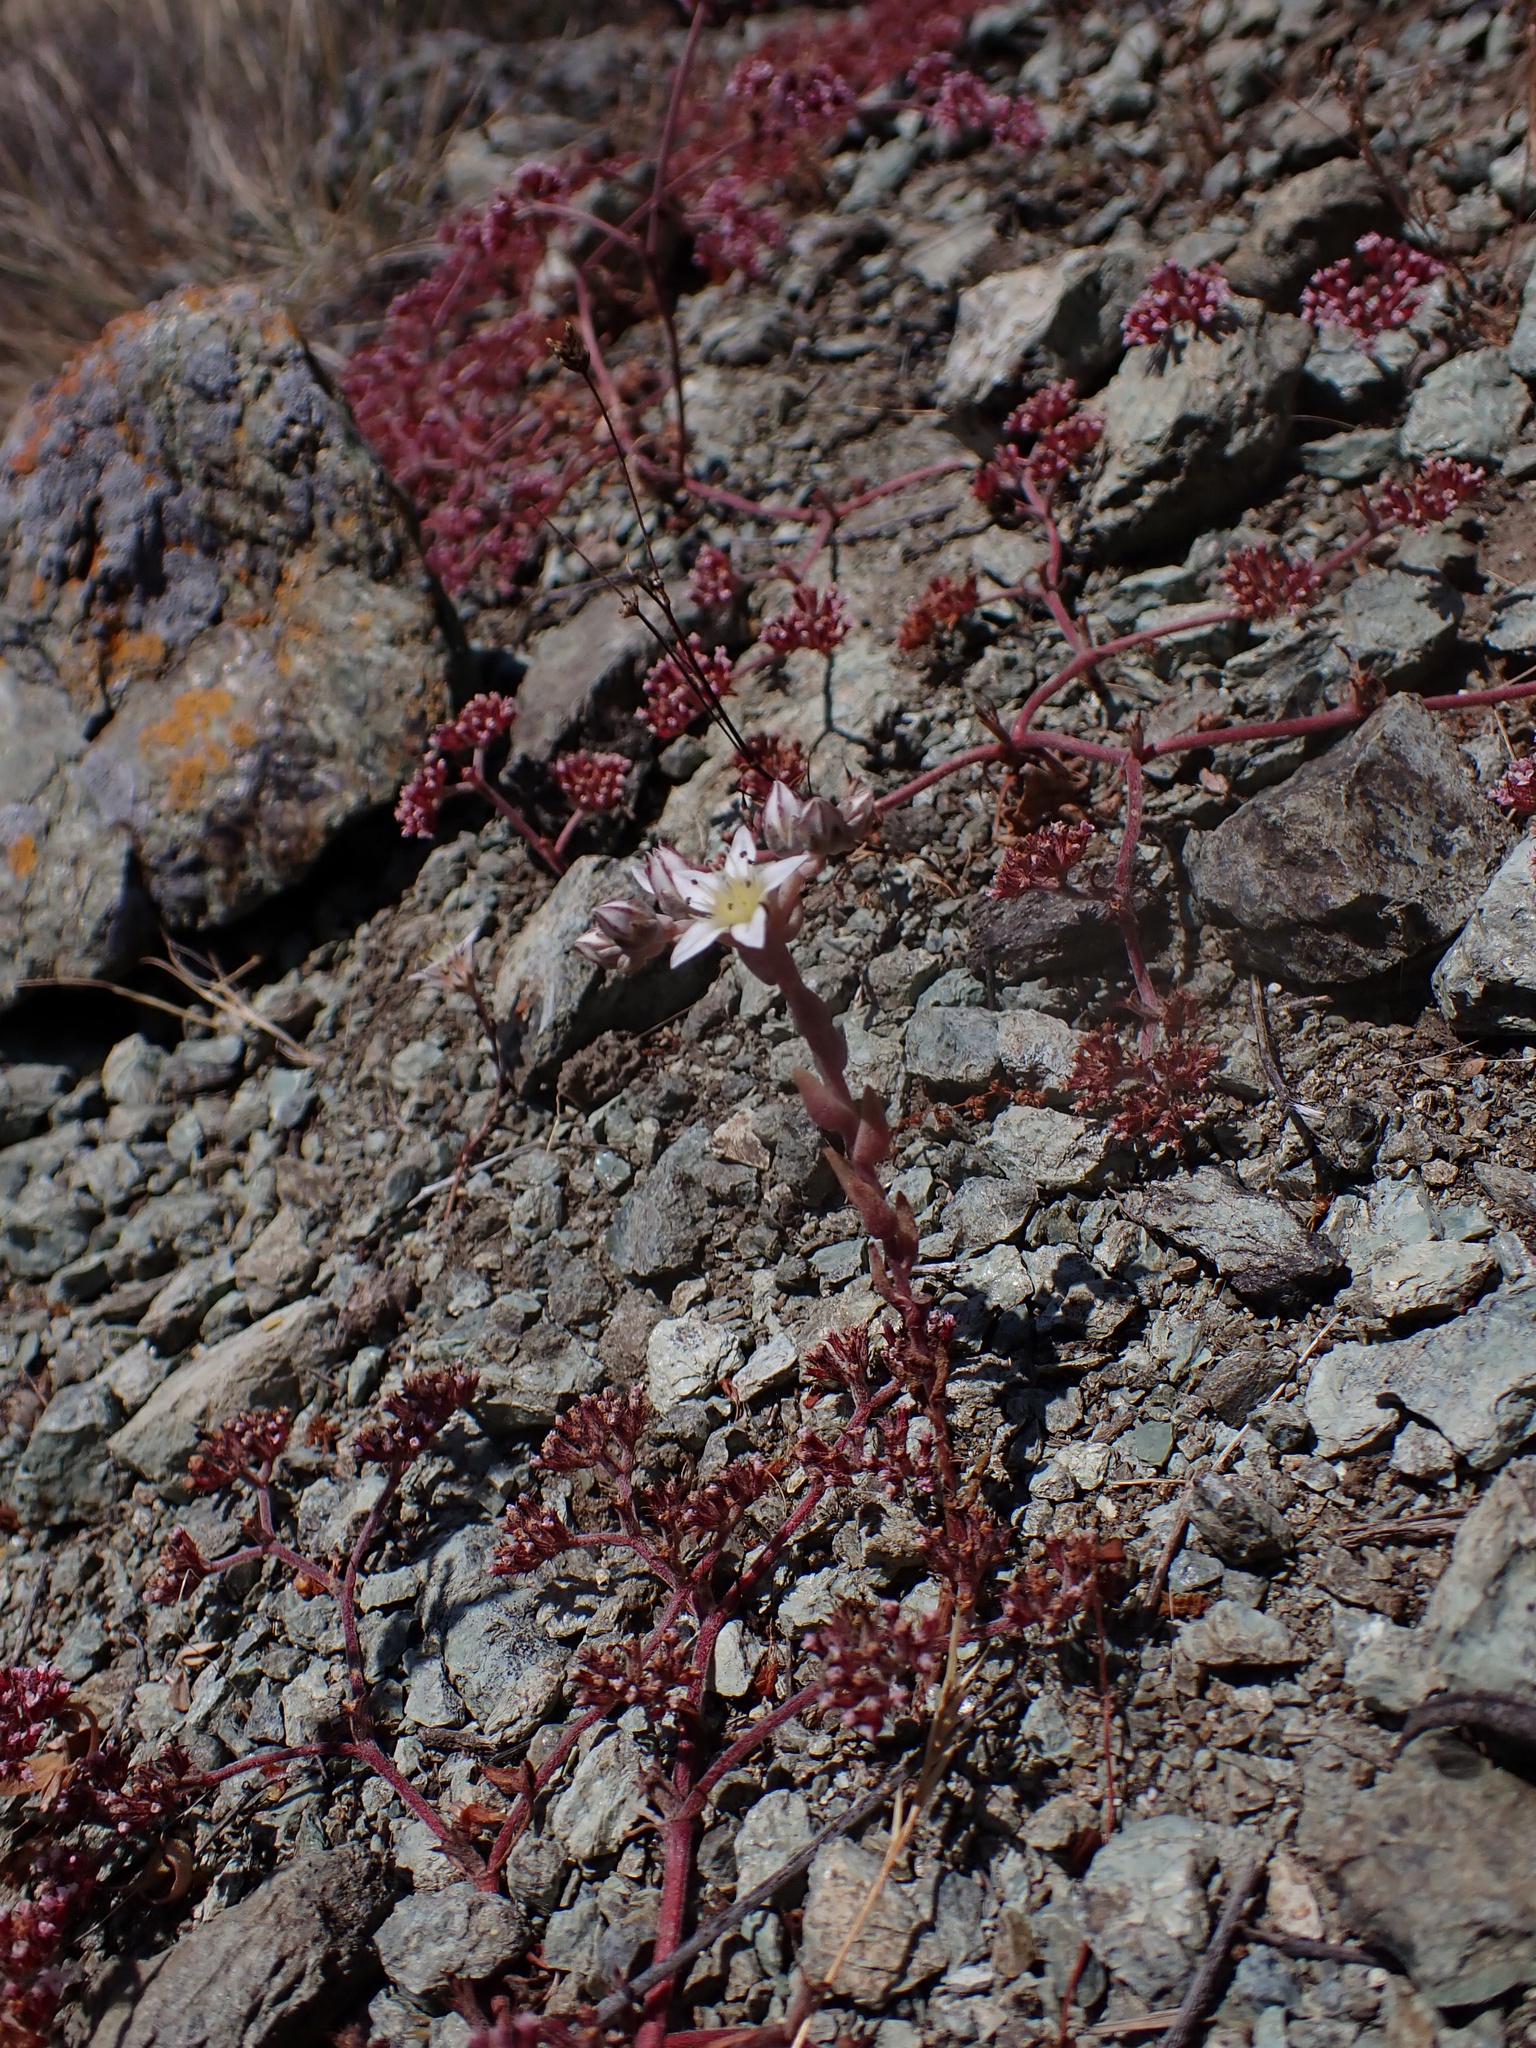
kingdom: Plantae
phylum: Tracheophyta
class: Magnoliopsida
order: Saxifragales
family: Crassulaceae
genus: Dudleya
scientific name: Dudleya blochmaniae
